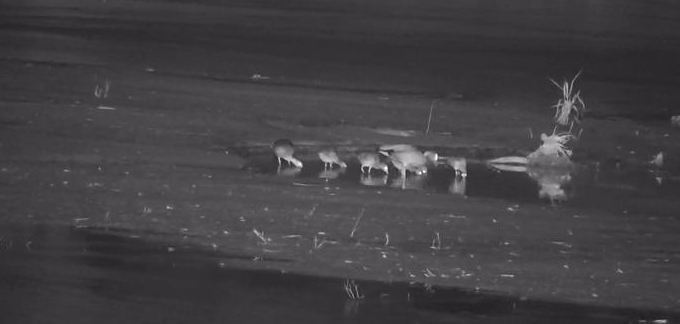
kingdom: Animalia
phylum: Chordata
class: Aves
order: Anseriformes
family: Anatidae
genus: Alopochen
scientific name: Alopochen aegyptiaca
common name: Egyptian goose
